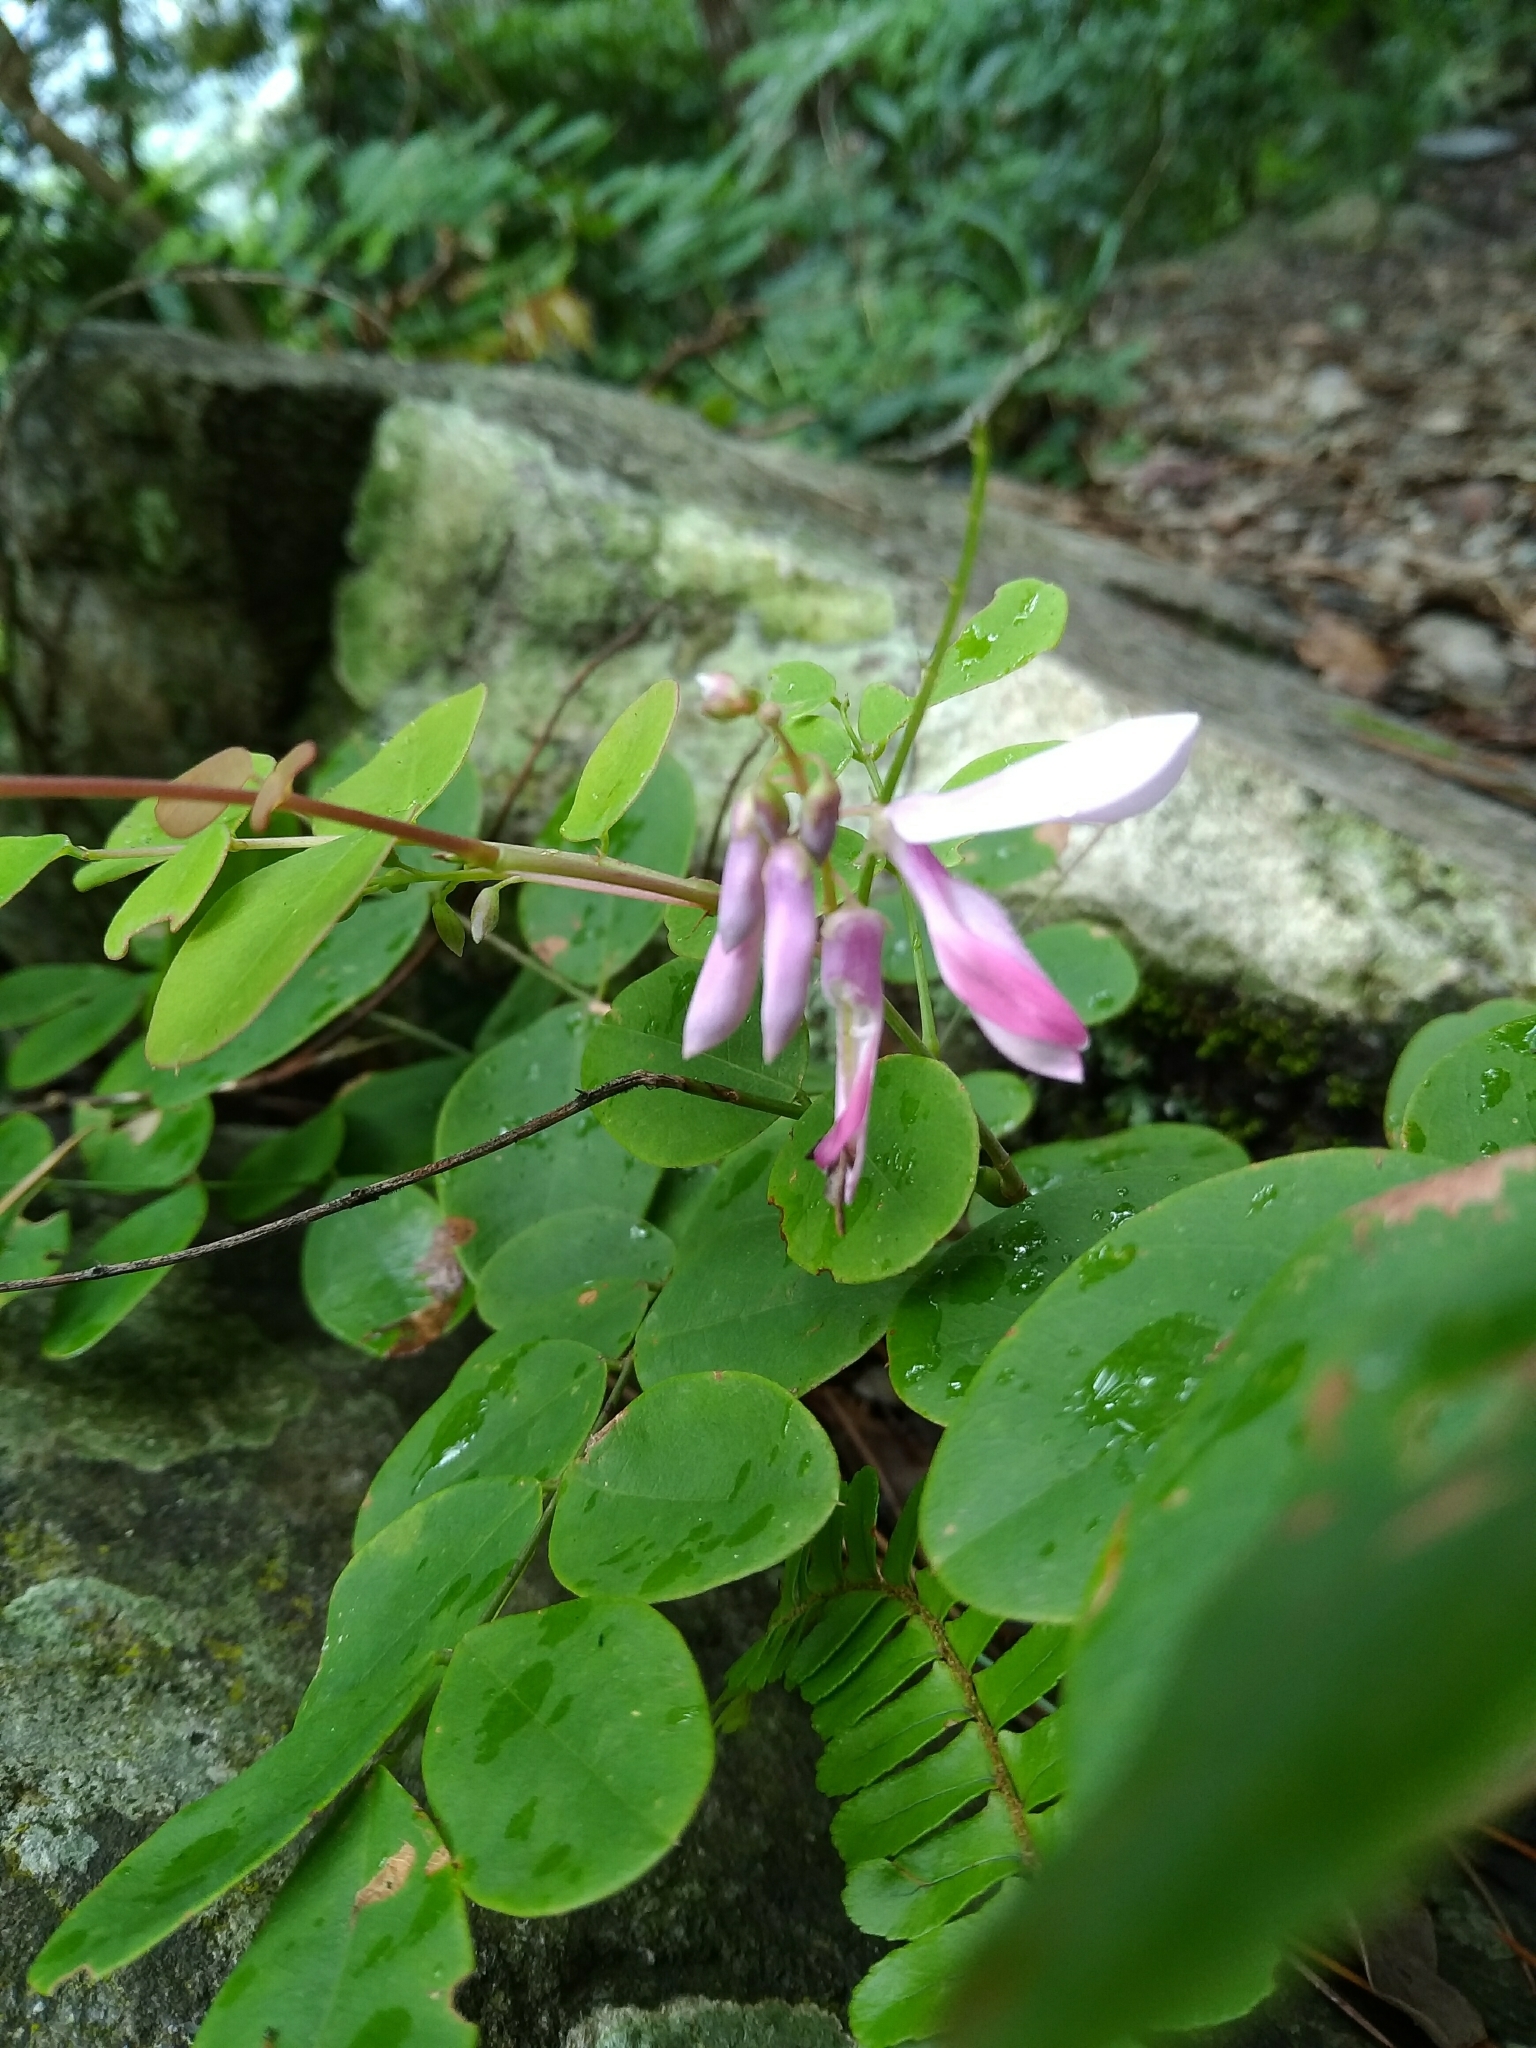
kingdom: Plantae
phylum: Tracheophyta
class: Magnoliopsida
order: Fabales
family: Fabaceae
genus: Indigofera
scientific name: Indigofera venulosa
